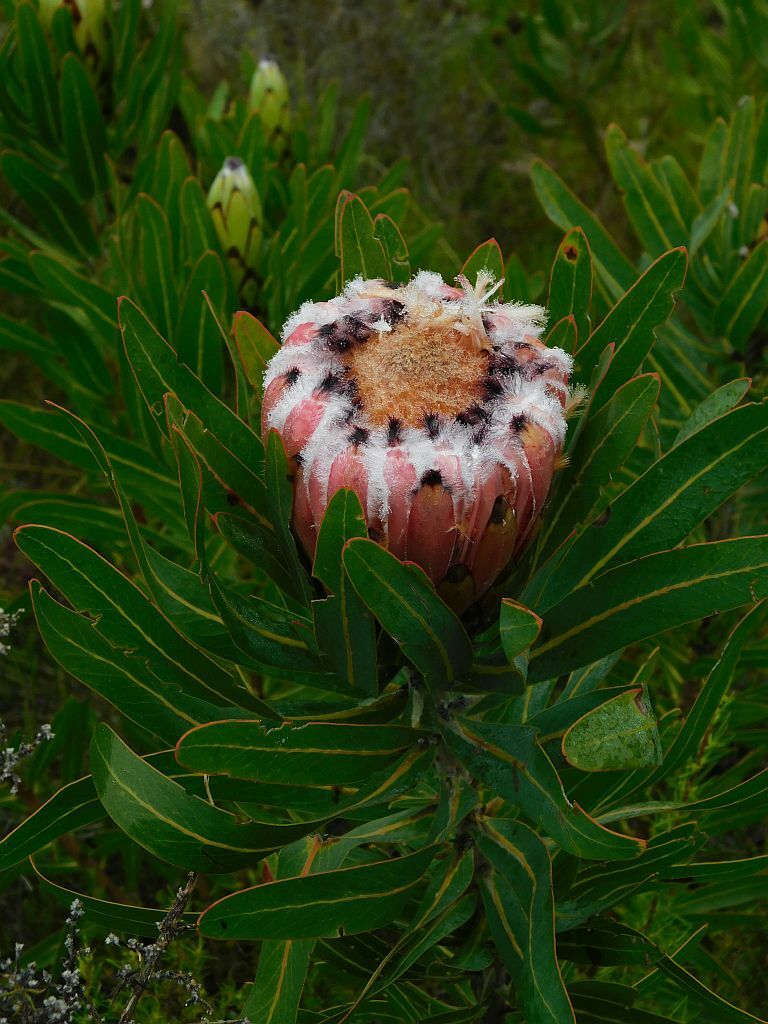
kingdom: Plantae
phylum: Tracheophyta
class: Magnoliopsida
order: Proteales
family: Proteaceae
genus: Protea
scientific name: Protea neriifolia
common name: Blue sugarbush
